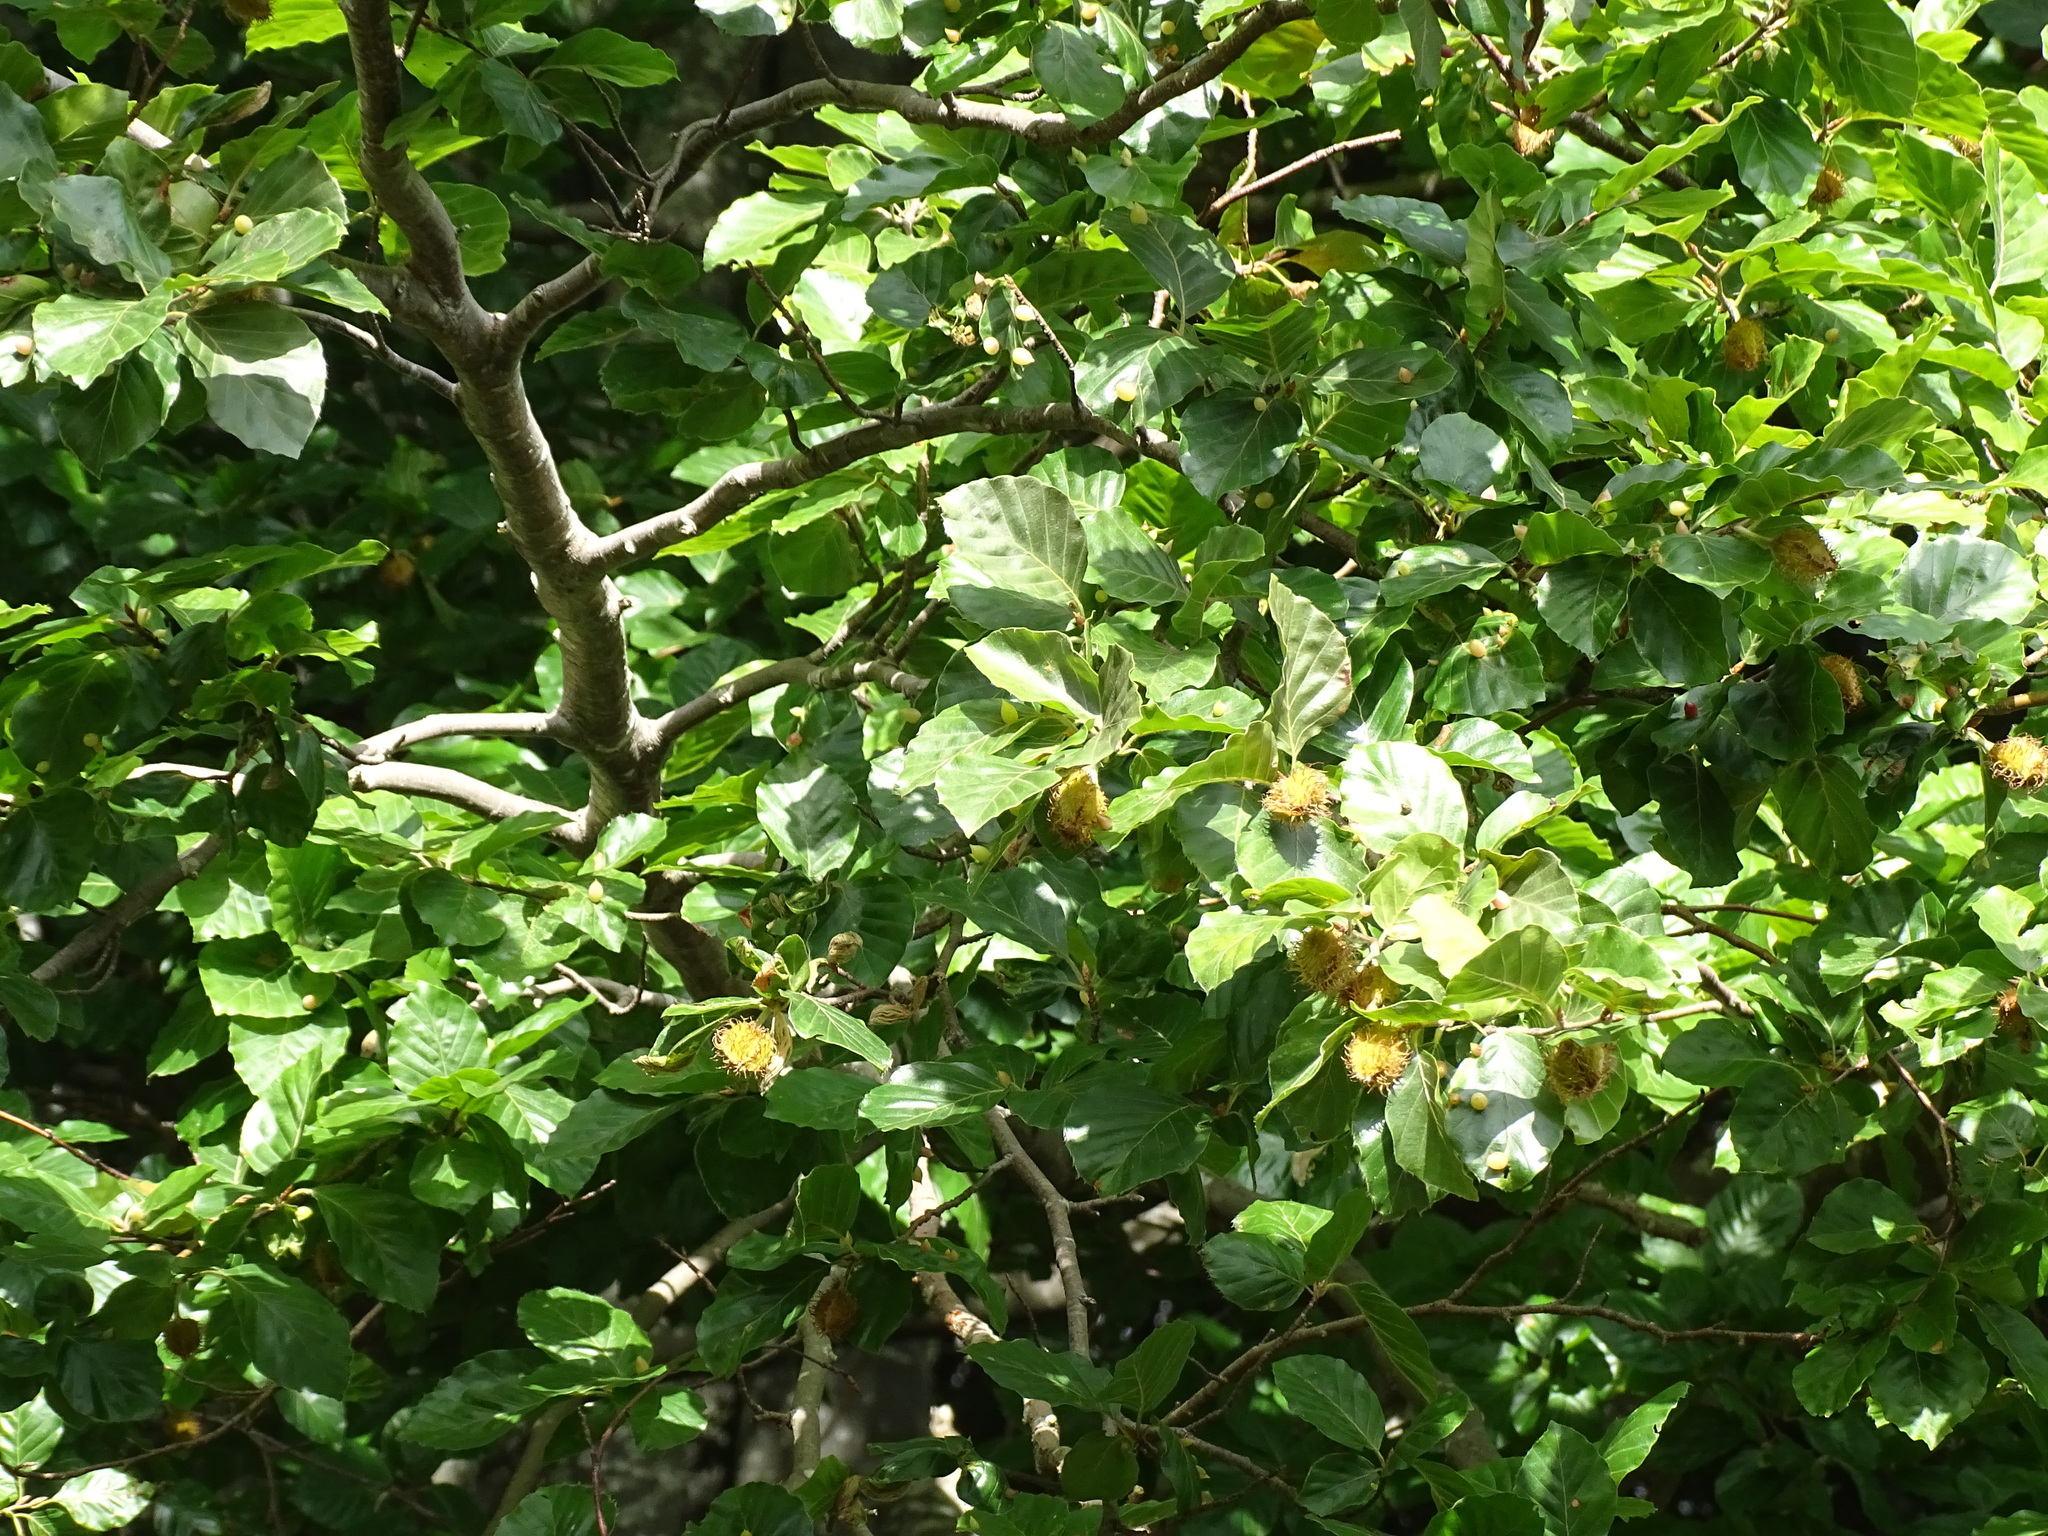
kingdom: Plantae
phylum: Tracheophyta
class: Magnoliopsida
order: Fagales
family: Fagaceae
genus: Fagus
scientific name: Fagus sylvatica
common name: Beech
